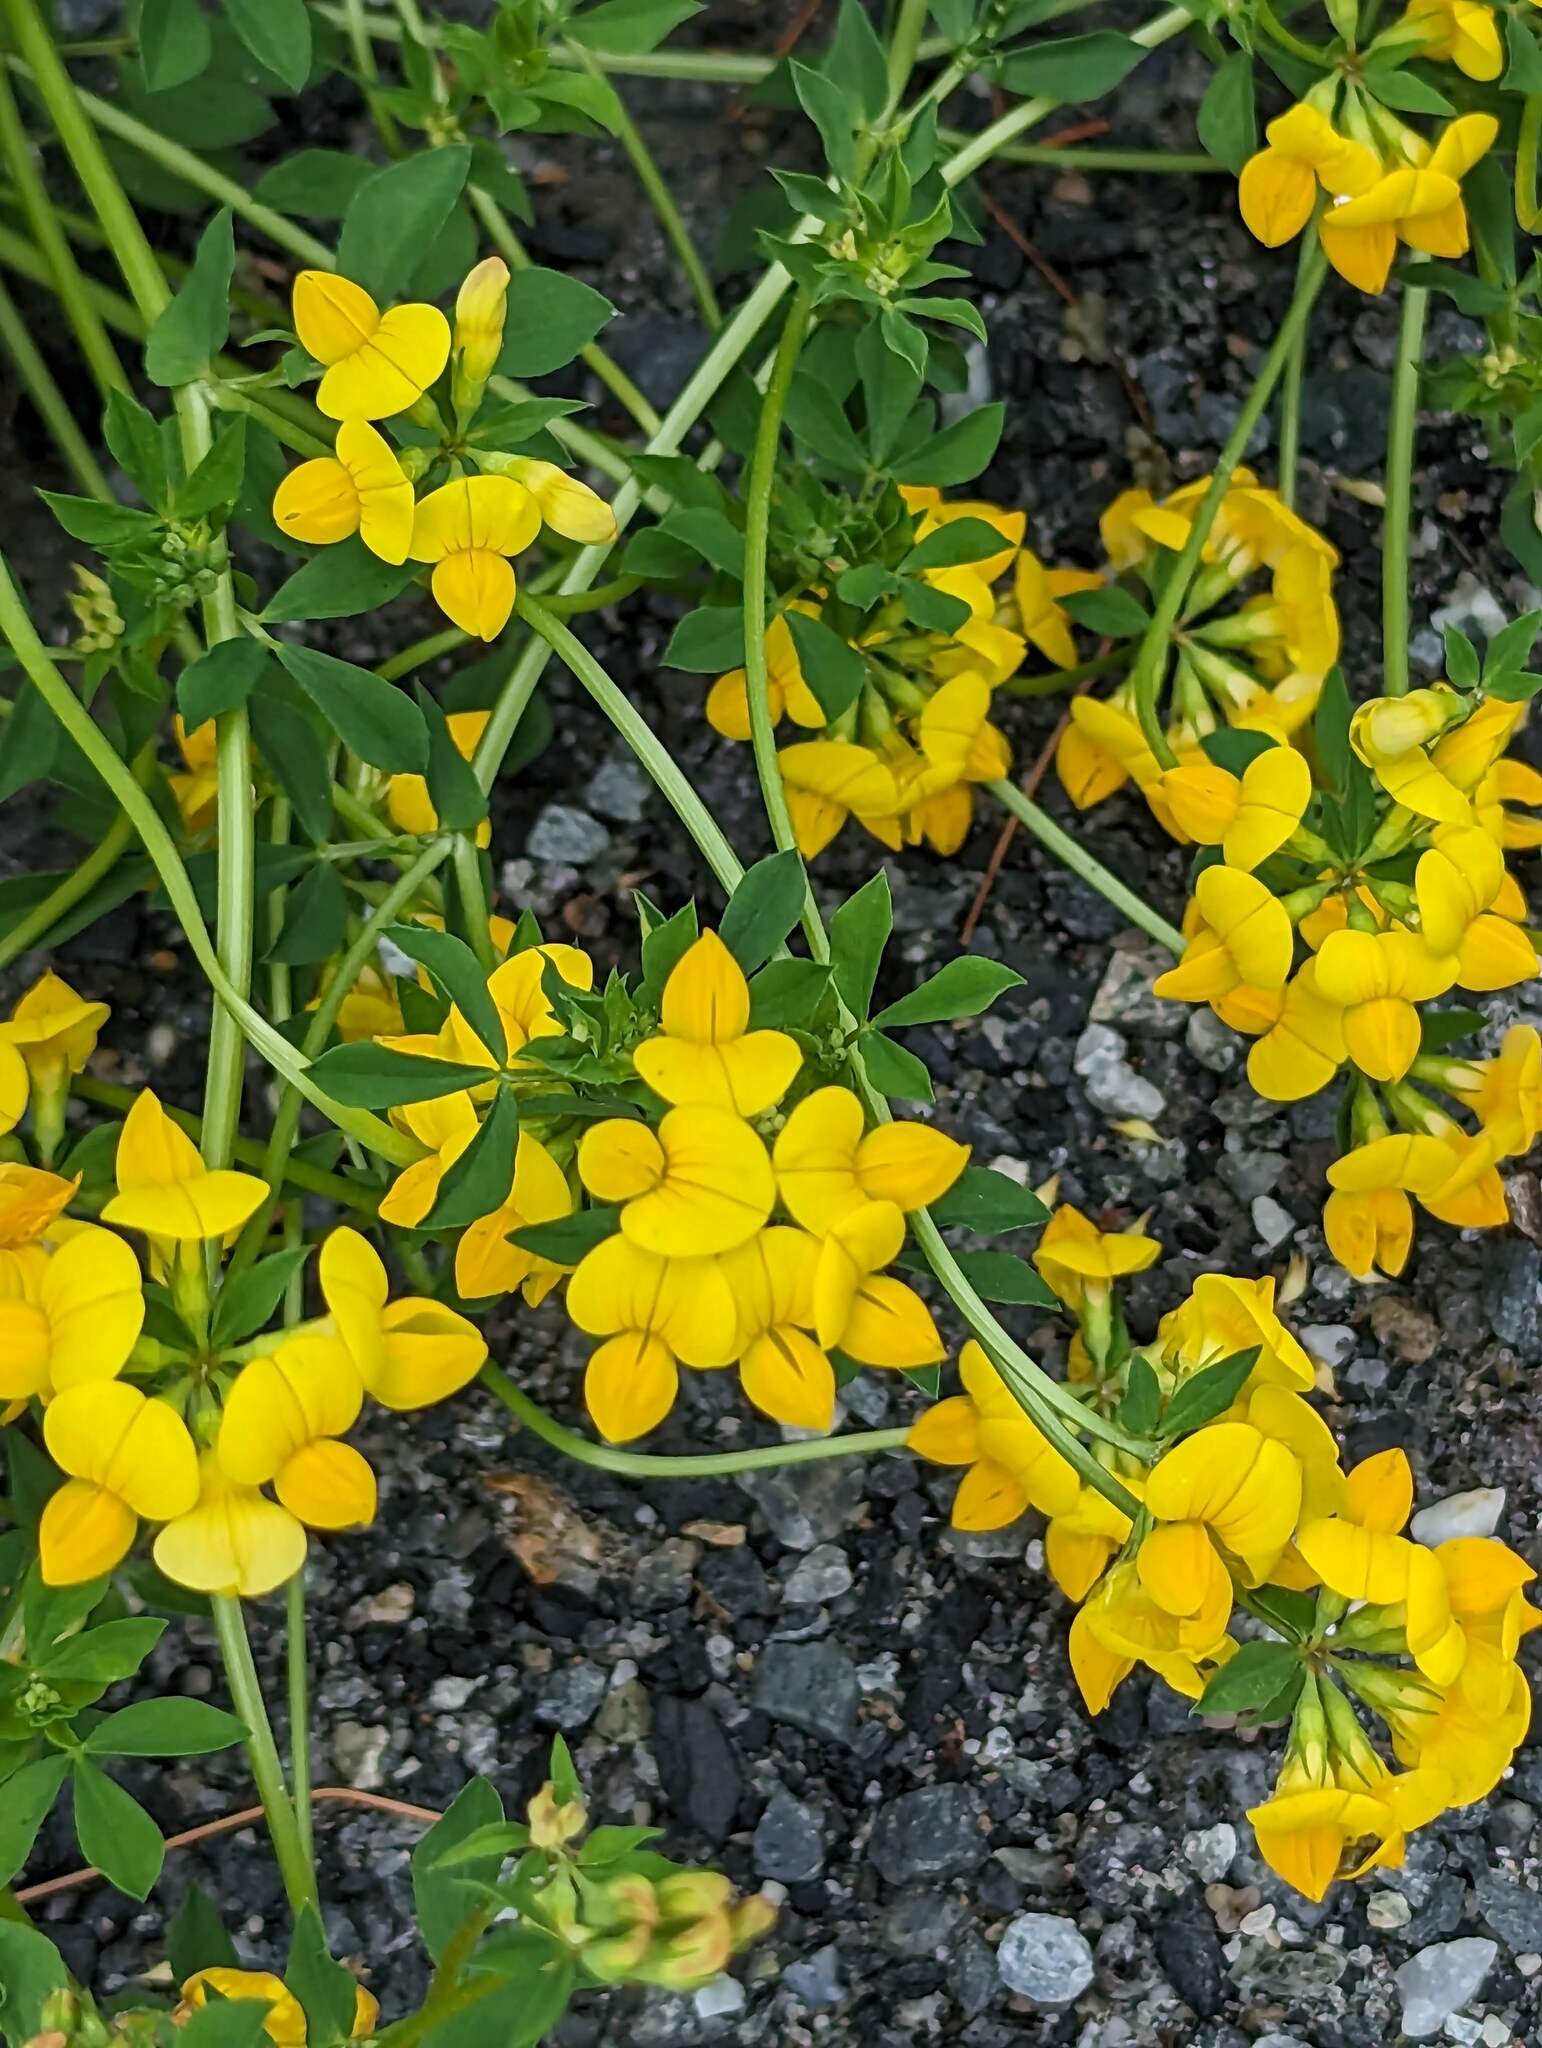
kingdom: Plantae
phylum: Tracheophyta
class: Magnoliopsida
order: Fabales
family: Fabaceae
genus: Lotus
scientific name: Lotus corniculatus
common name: Common bird's-foot-trefoil
